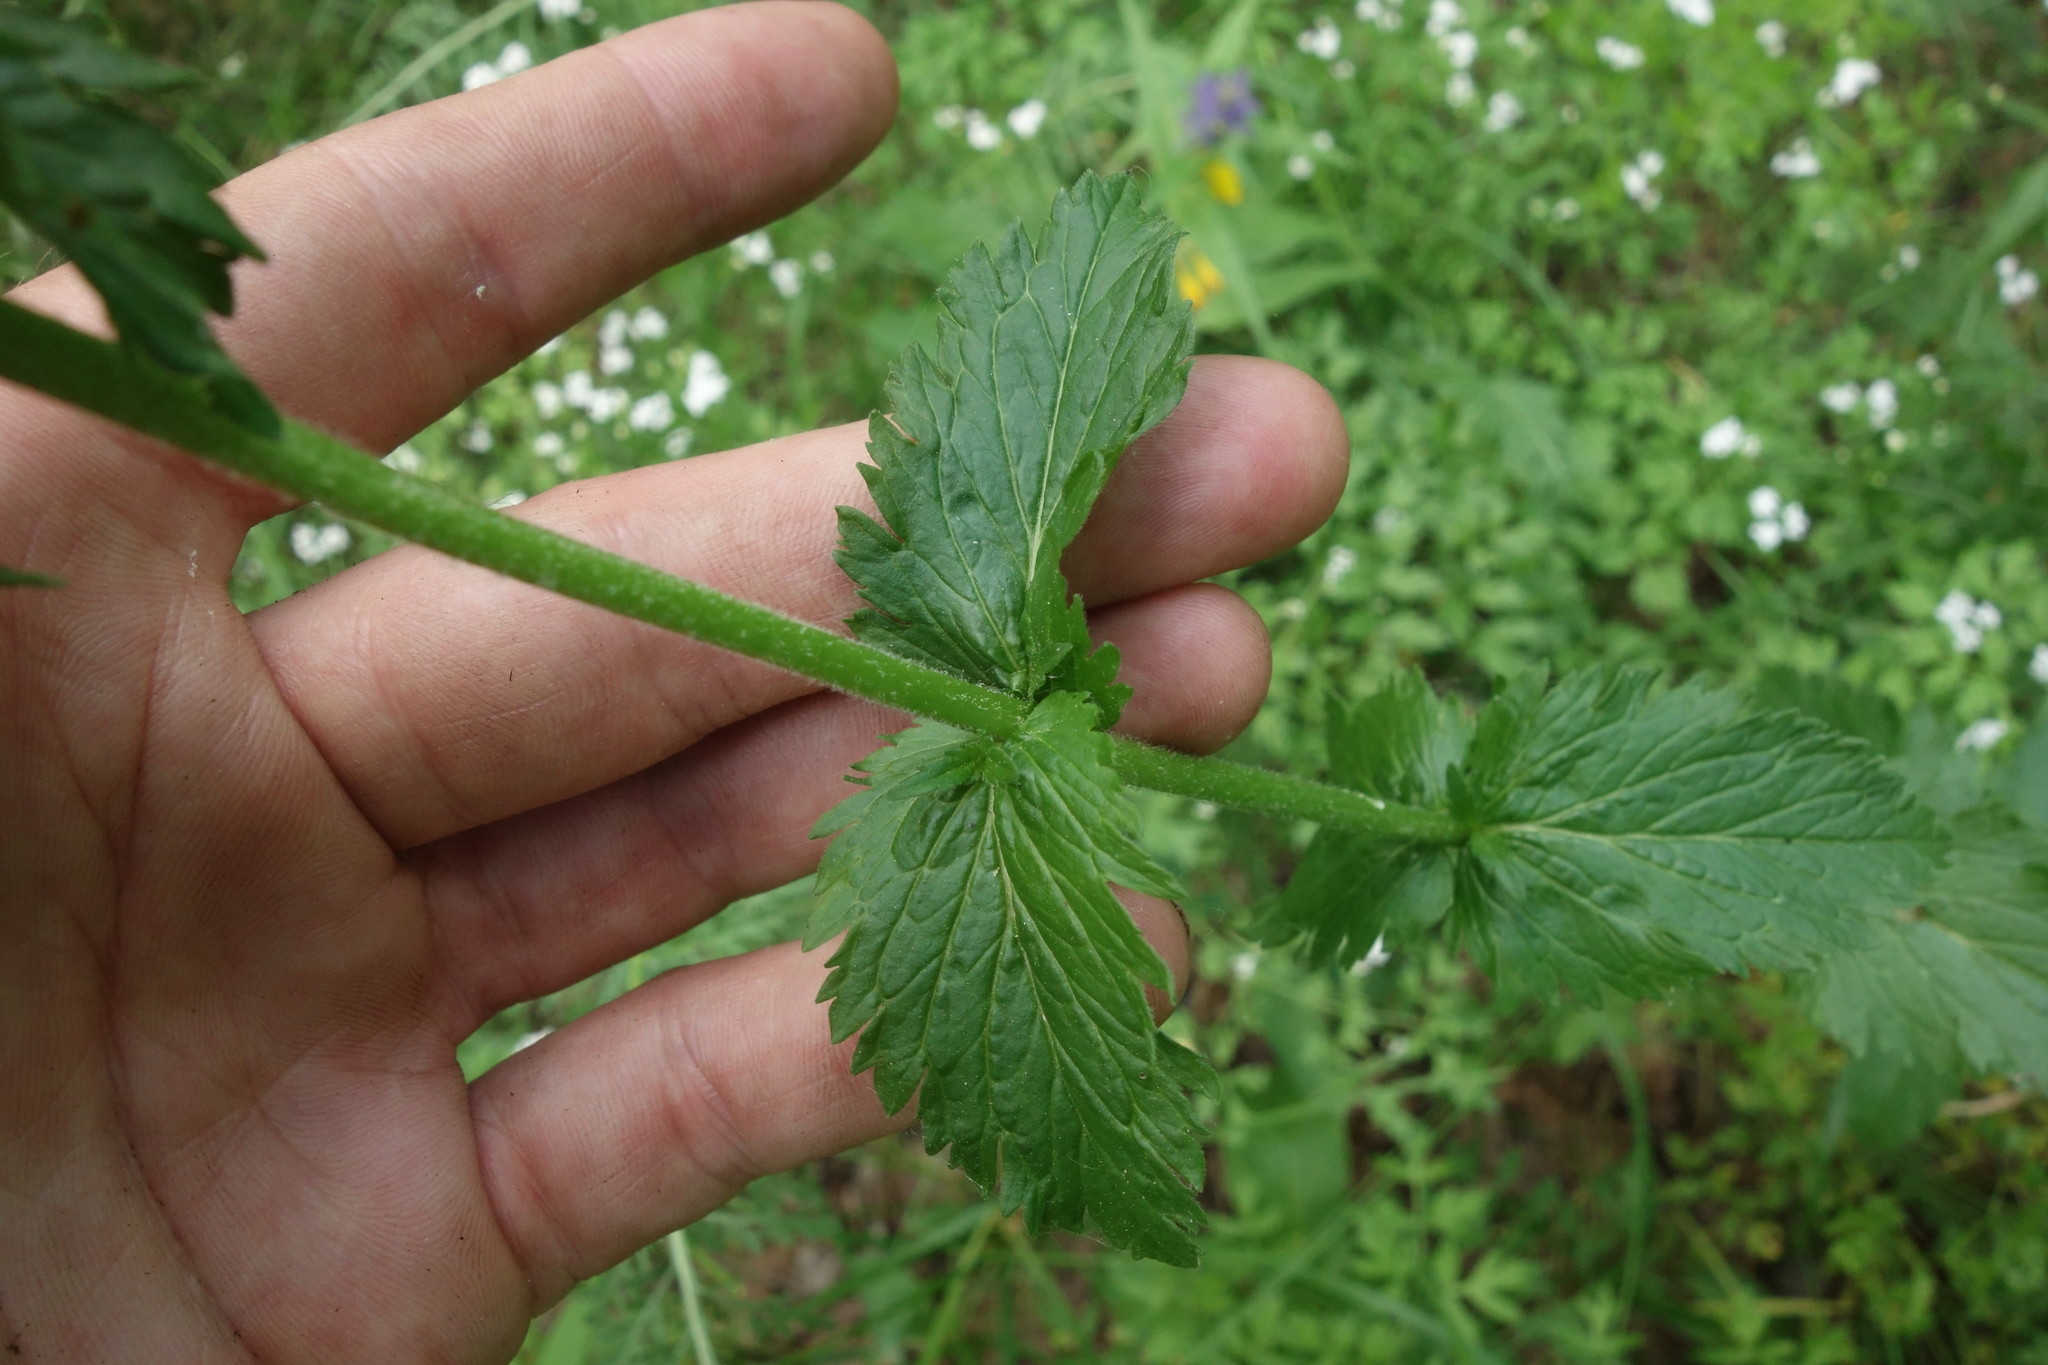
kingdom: Plantae
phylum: Tracheophyta
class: Magnoliopsida
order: Lamiales
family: Plantaginaceae
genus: Veronica
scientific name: Veronica teucrium
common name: Large speedwell
